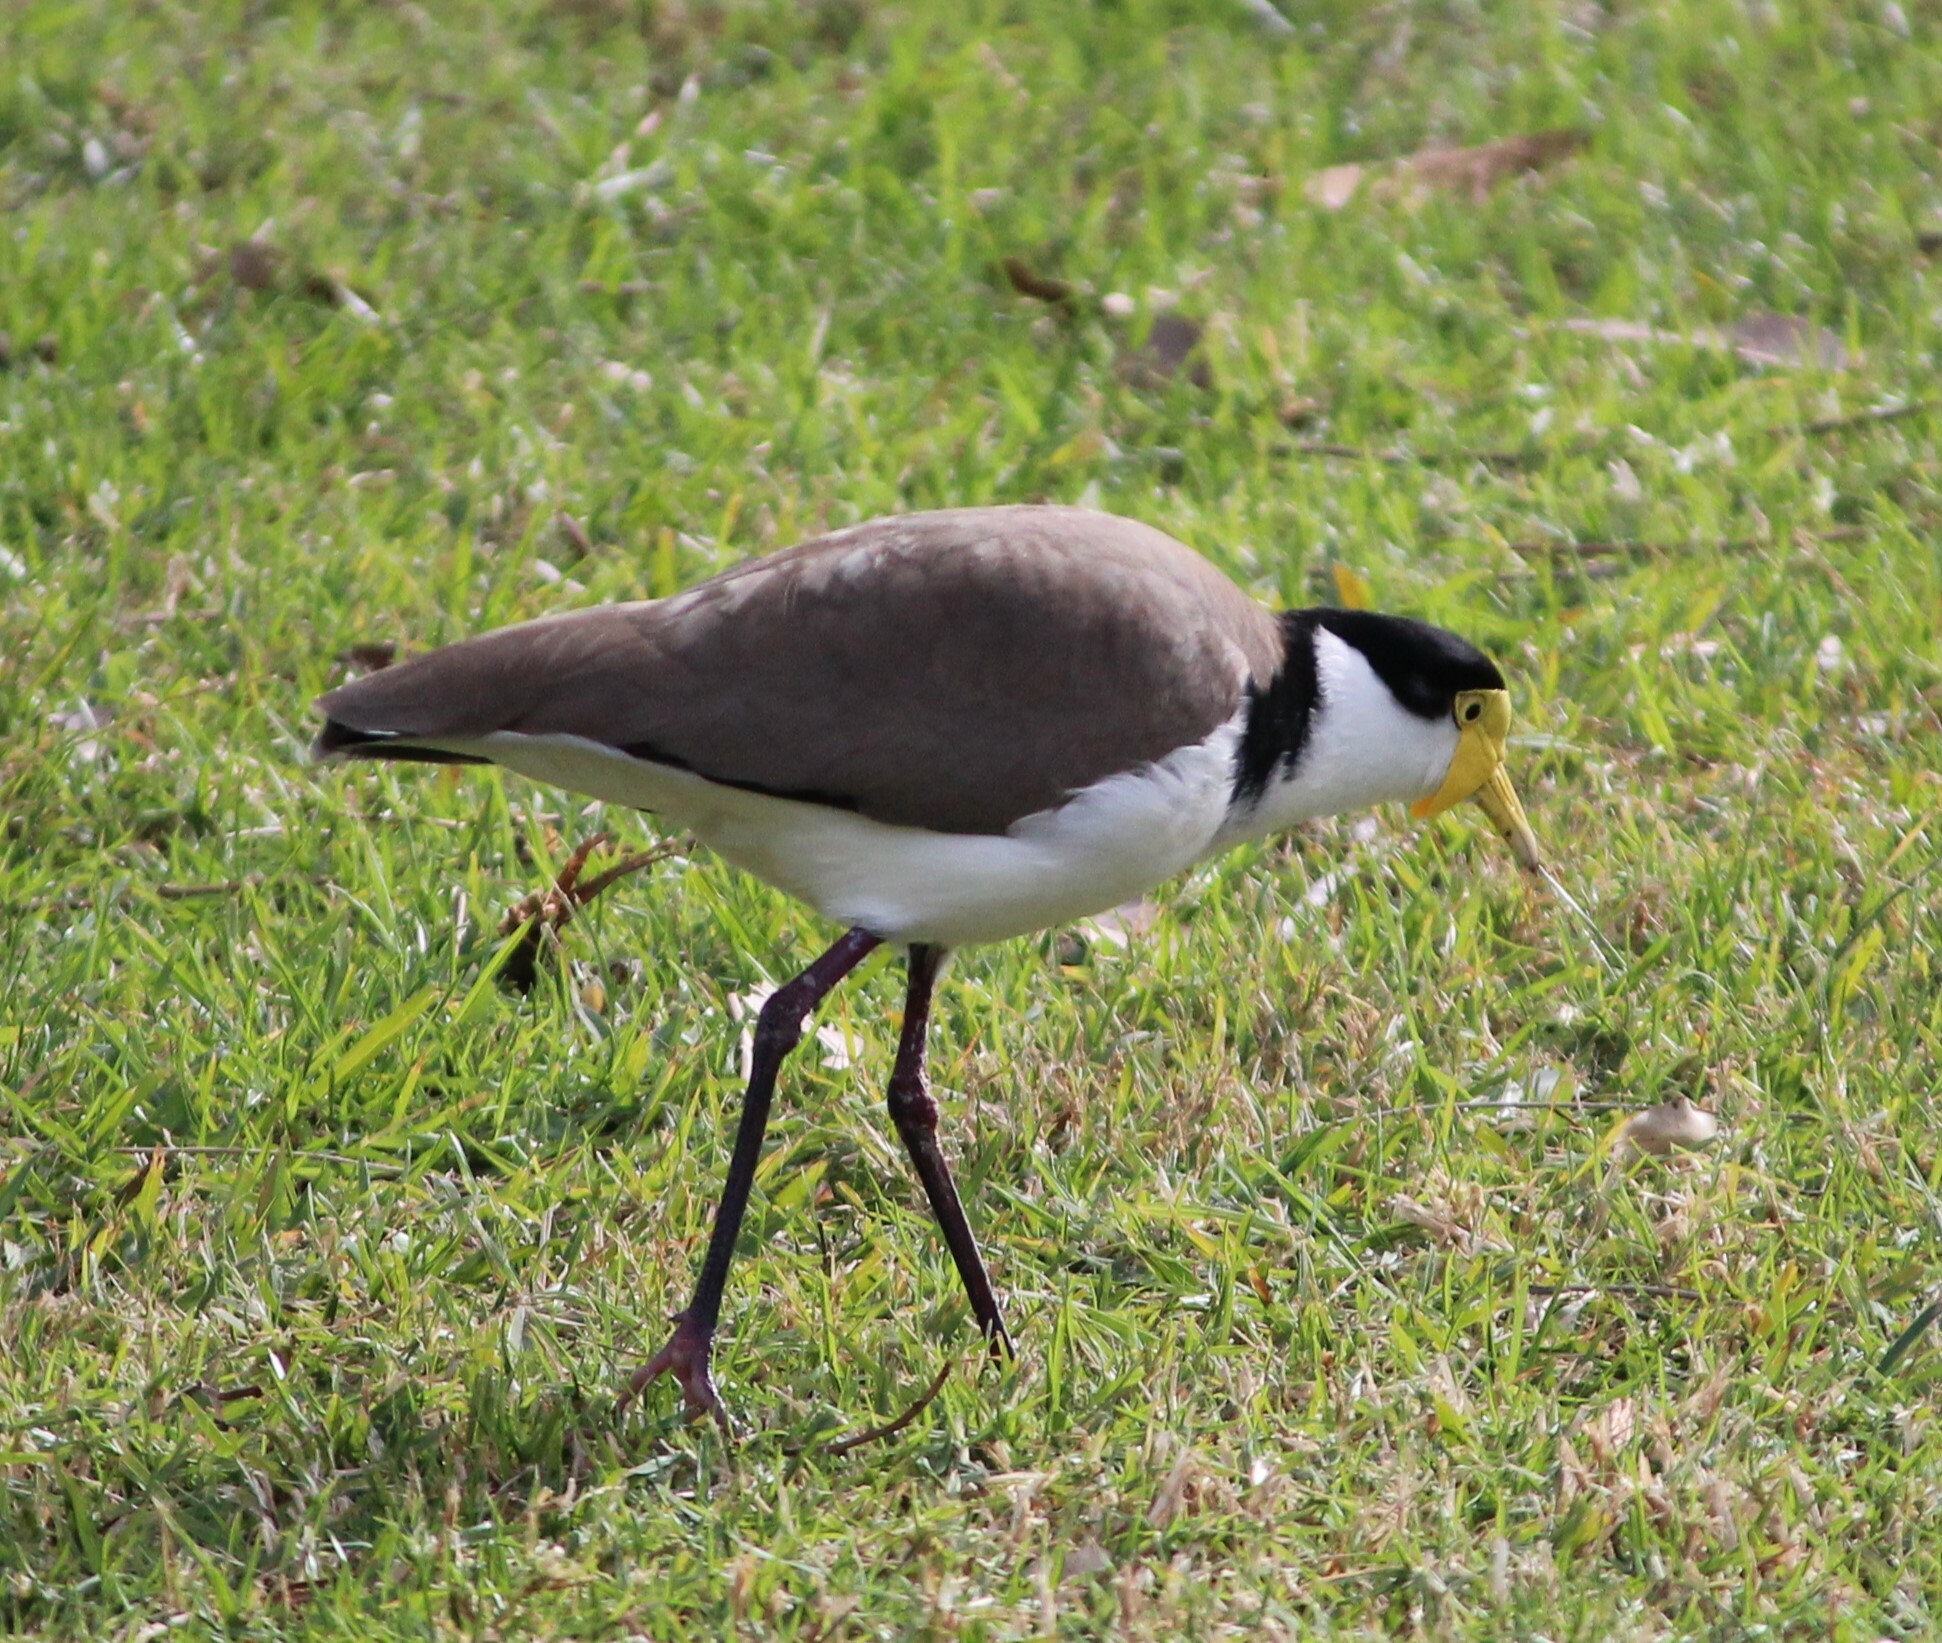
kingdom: Animalia
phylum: Chordata
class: Aves
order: Charadriiformes
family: Charadriidae
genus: Vanellus
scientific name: Vanellus miles
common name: Masked lapwing
